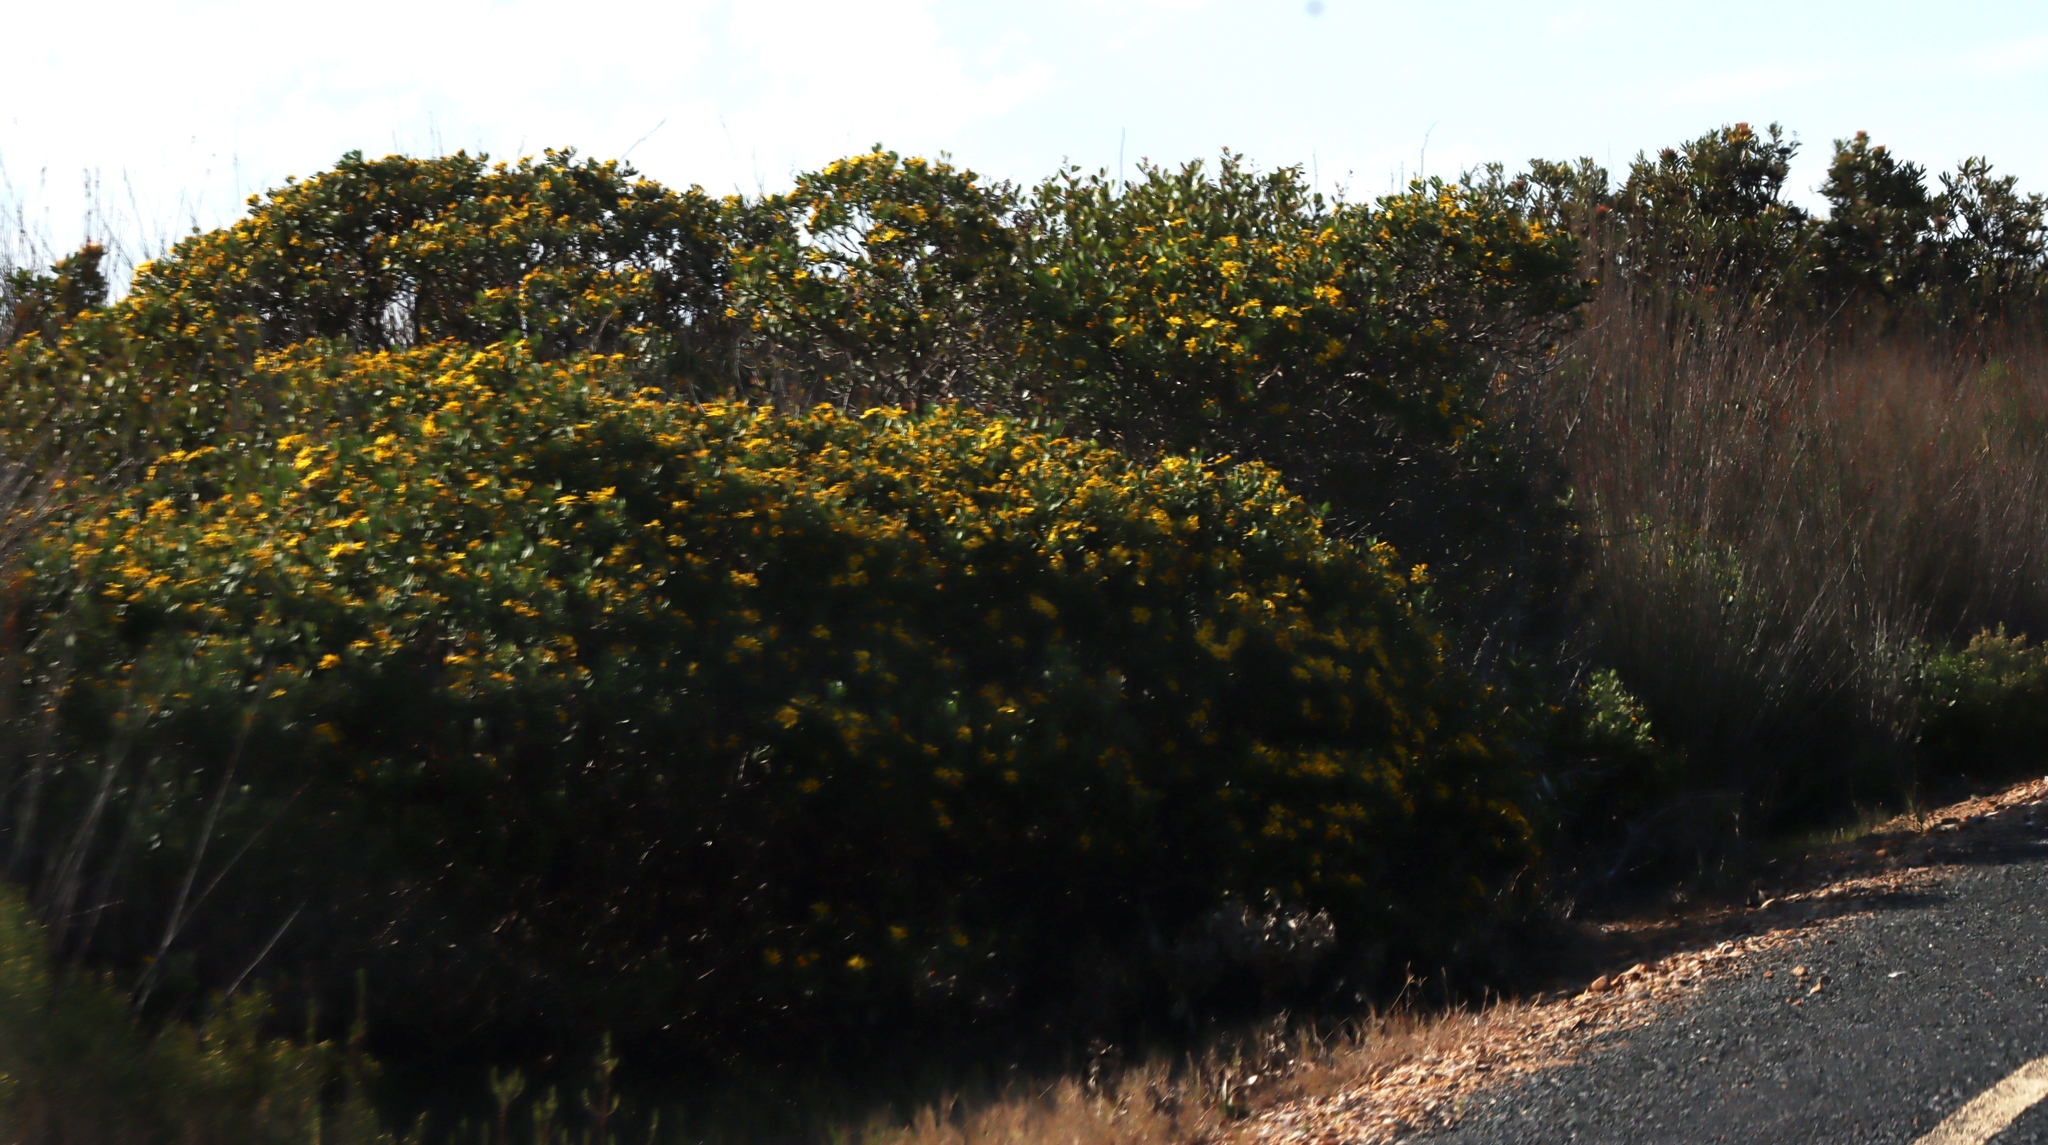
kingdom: Plantae
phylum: Tracheophyta
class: Magnoliopsida
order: Asterales
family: Asteraceae
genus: Osteospermum
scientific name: Osteospermum moniliferum
